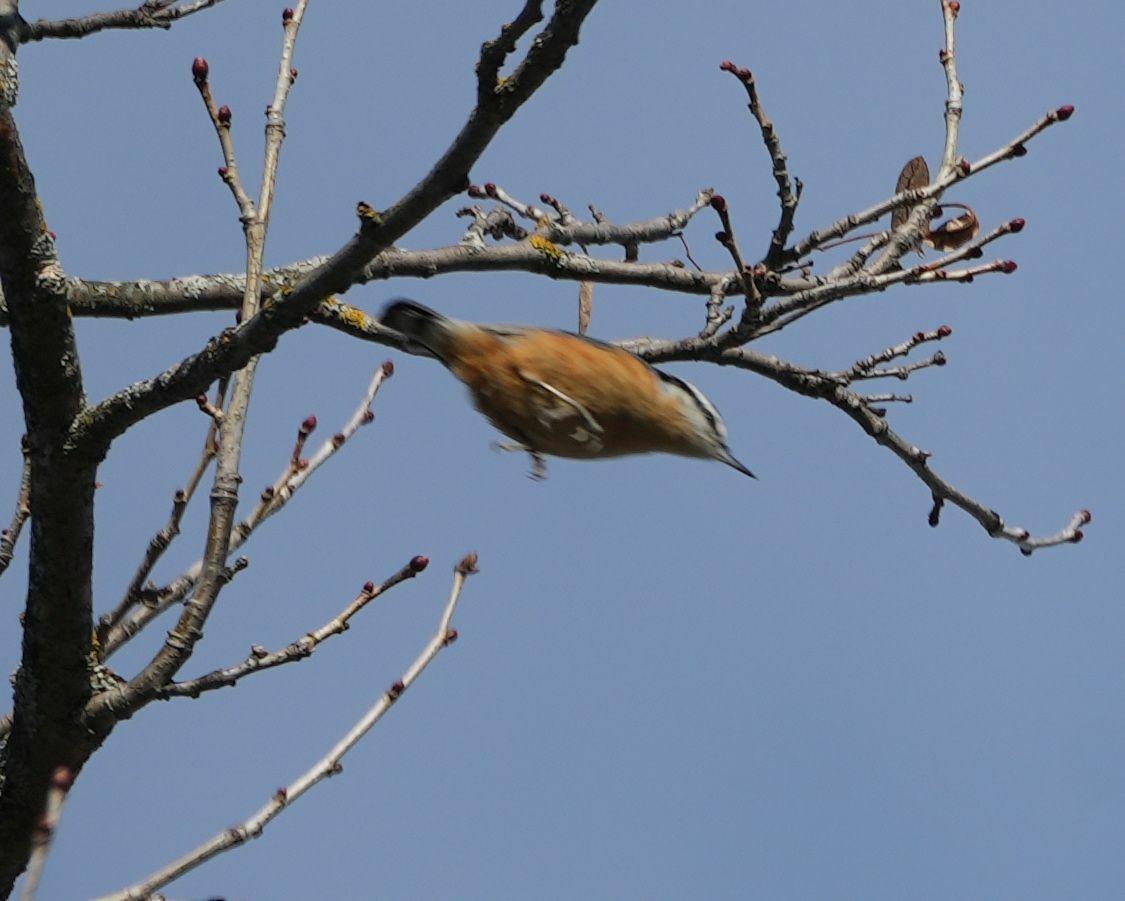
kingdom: Animalia
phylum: Chordata
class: Aves
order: Passeriformes
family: Sittidae
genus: Sitta
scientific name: Sitta canadensis
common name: Red-breasted nuthatch
